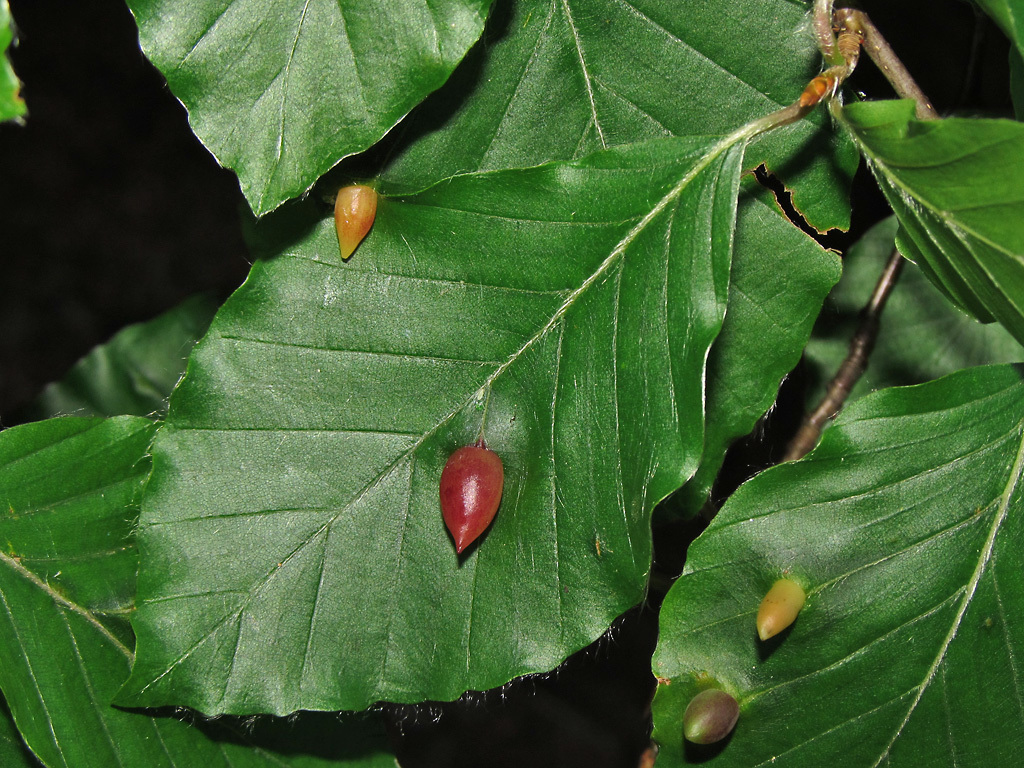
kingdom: Animalia
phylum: Arthropoda
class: Insecta
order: Diptera
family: Cecidomyiidae
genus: Mikiola
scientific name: Mikiola fagi
